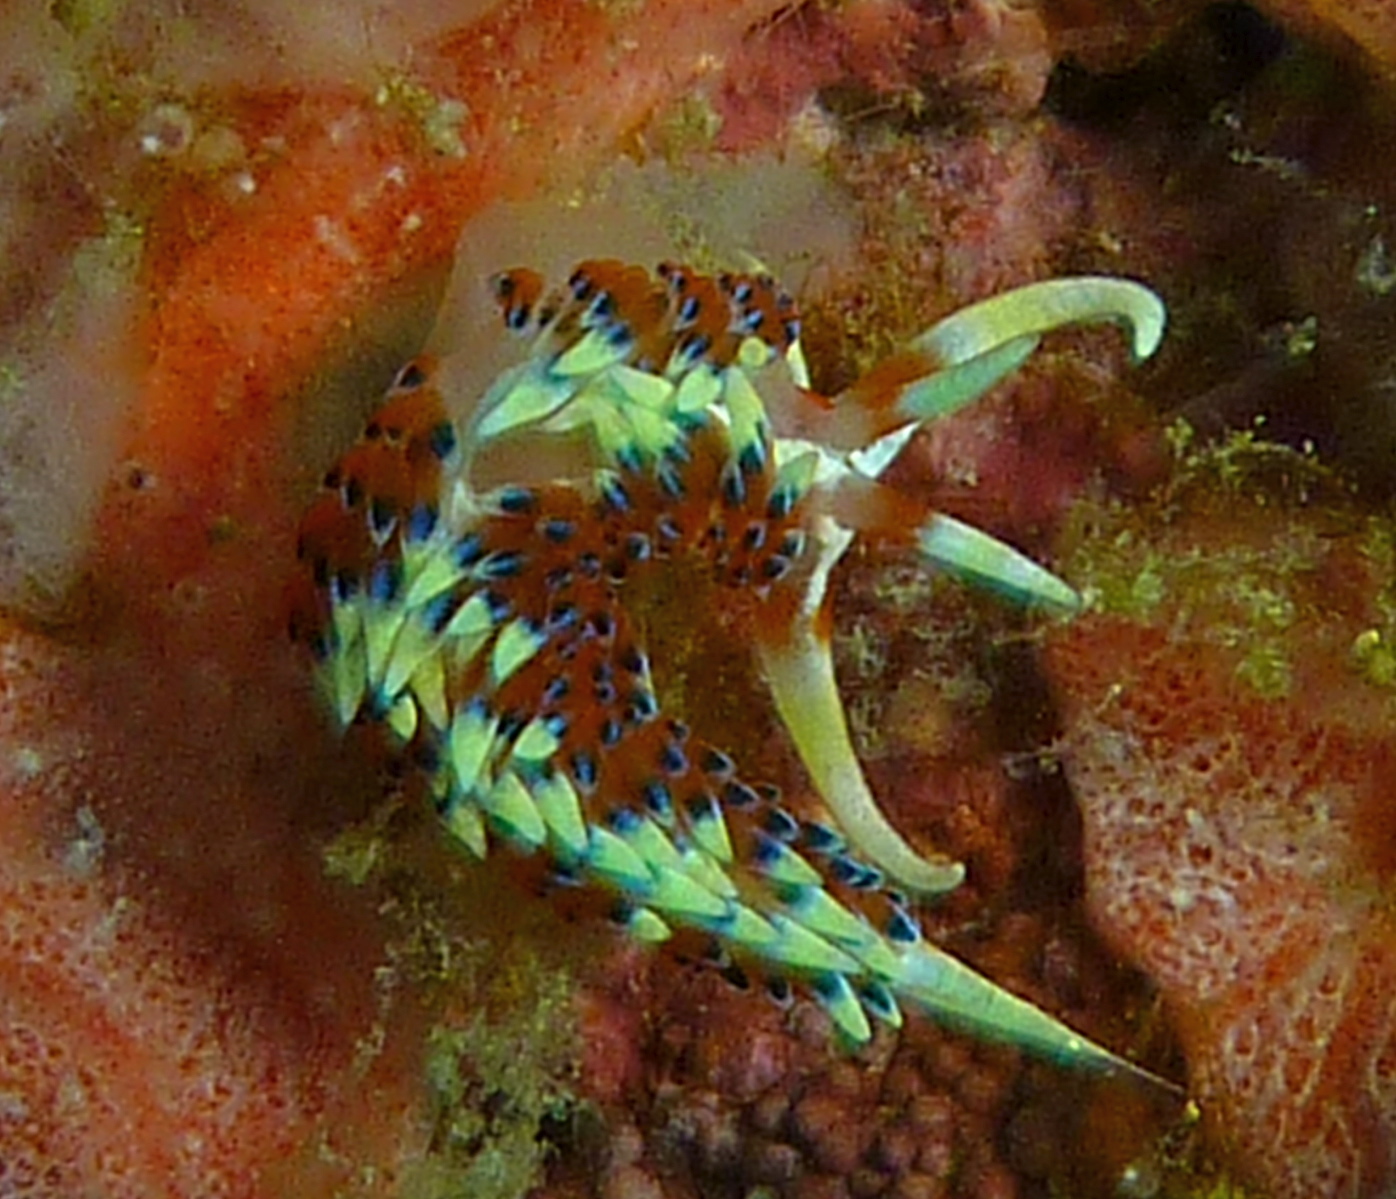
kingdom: Animalia
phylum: Mollusca
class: Gastropoda
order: Nudibranchia
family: Facelinidae
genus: Caloria
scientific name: Caloria indica
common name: Sea slug
